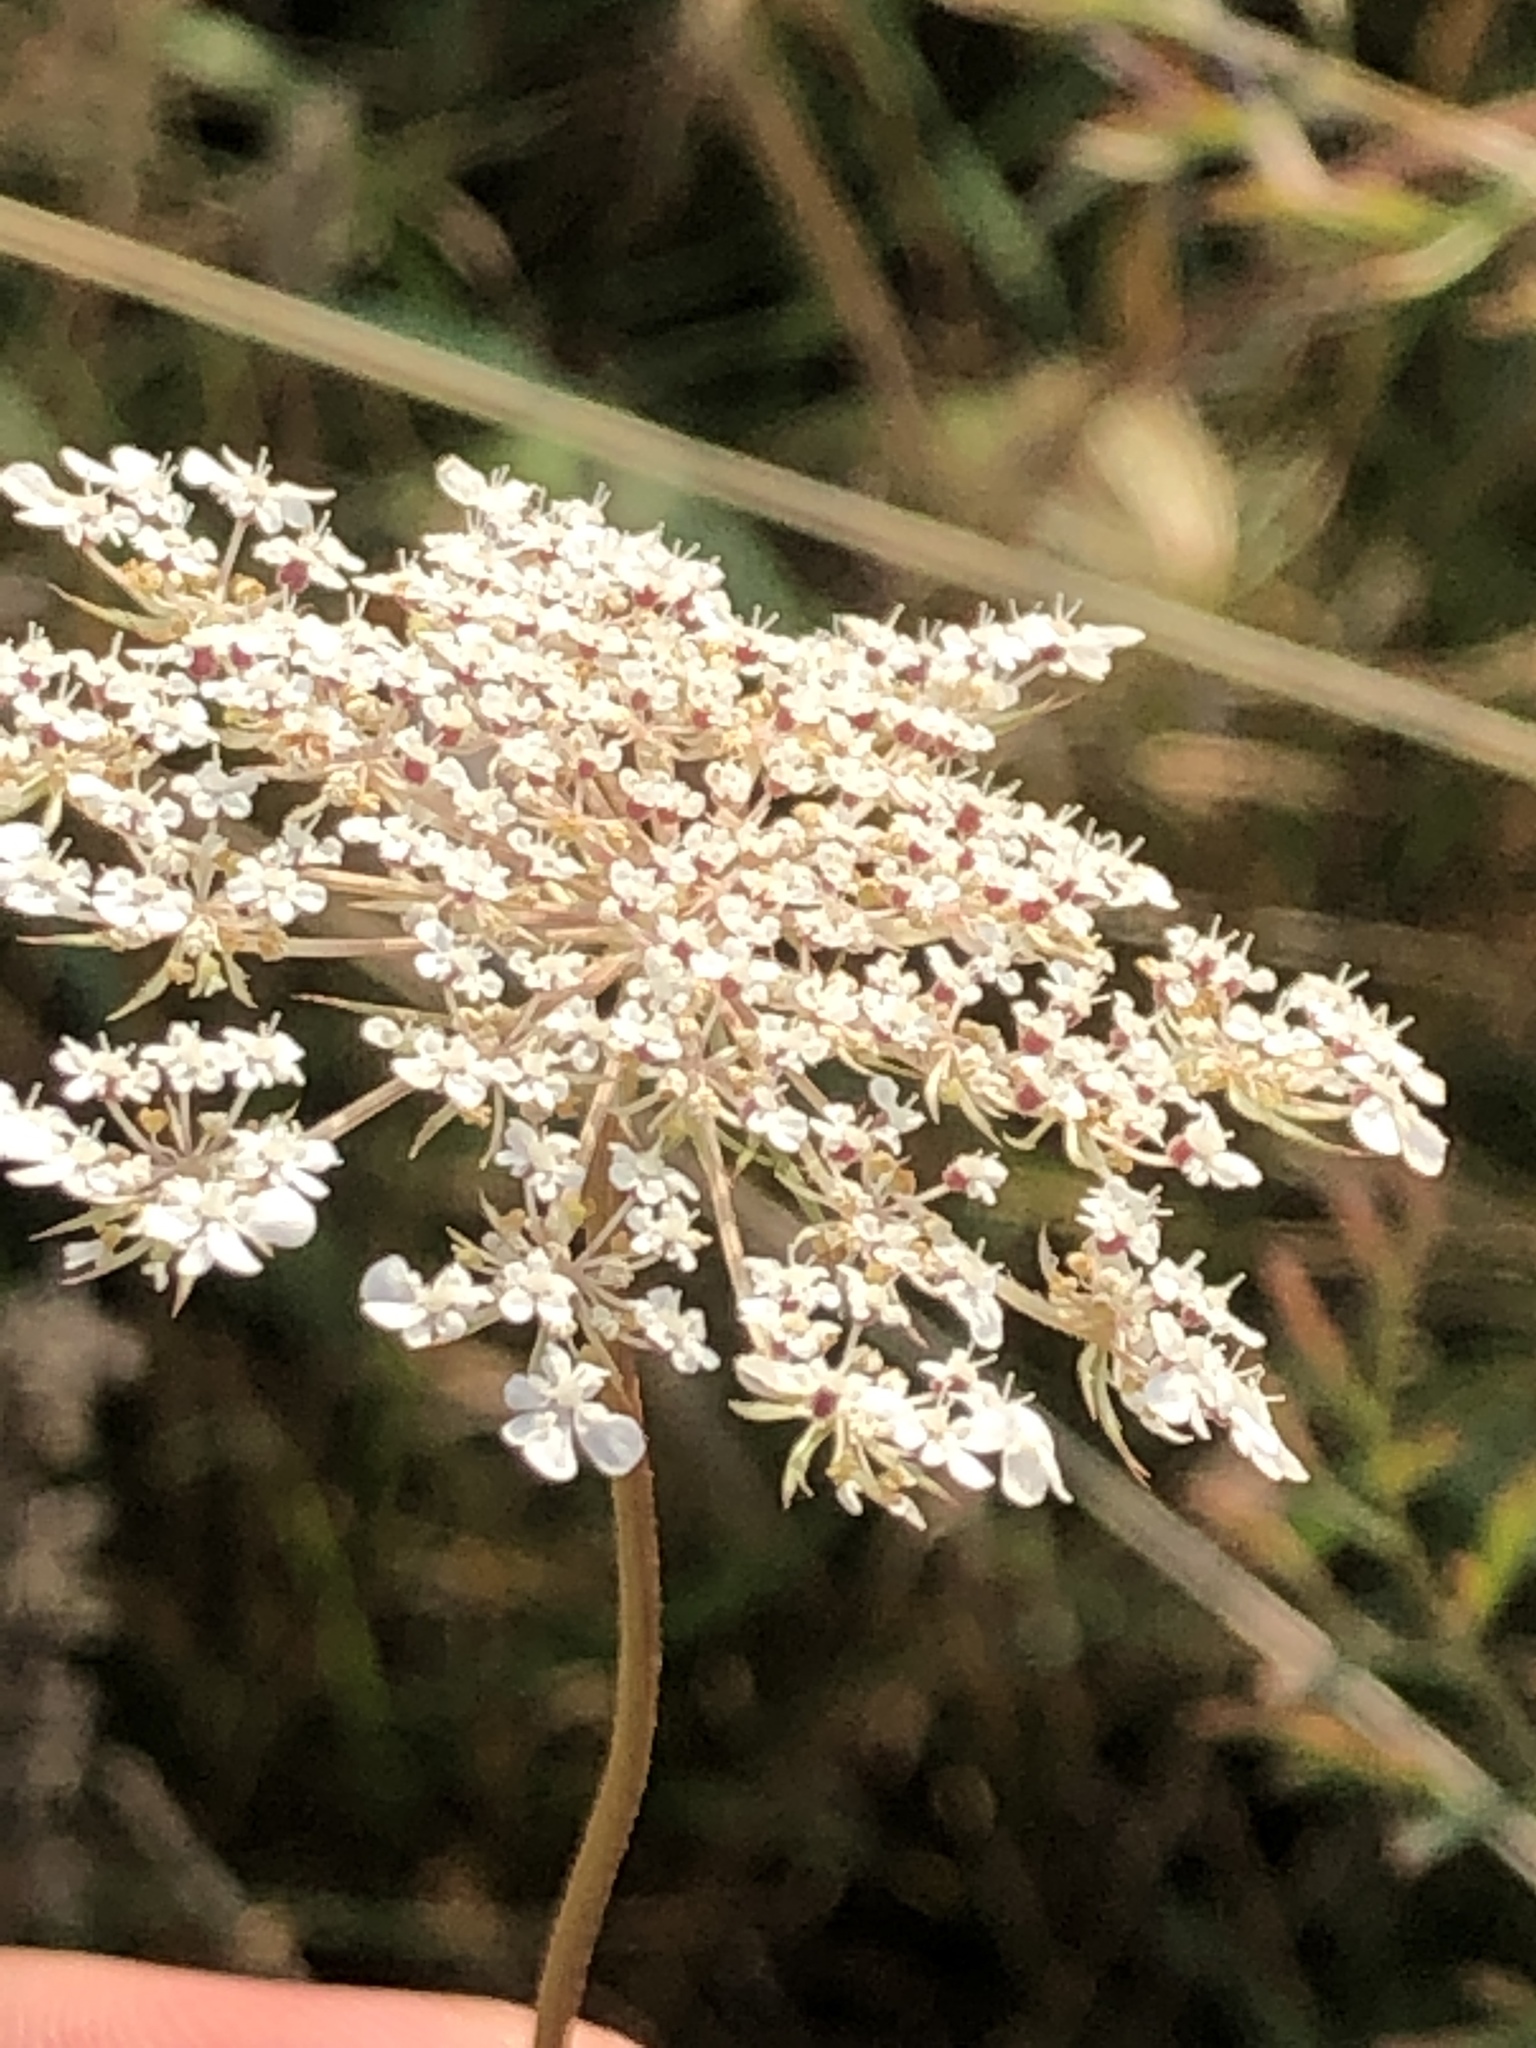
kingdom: Plantae
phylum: Tracheophyta
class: Magnoliopsida
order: Apiales
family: Apiaceae
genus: Daucus
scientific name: Daucus carota
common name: Wild carrot
